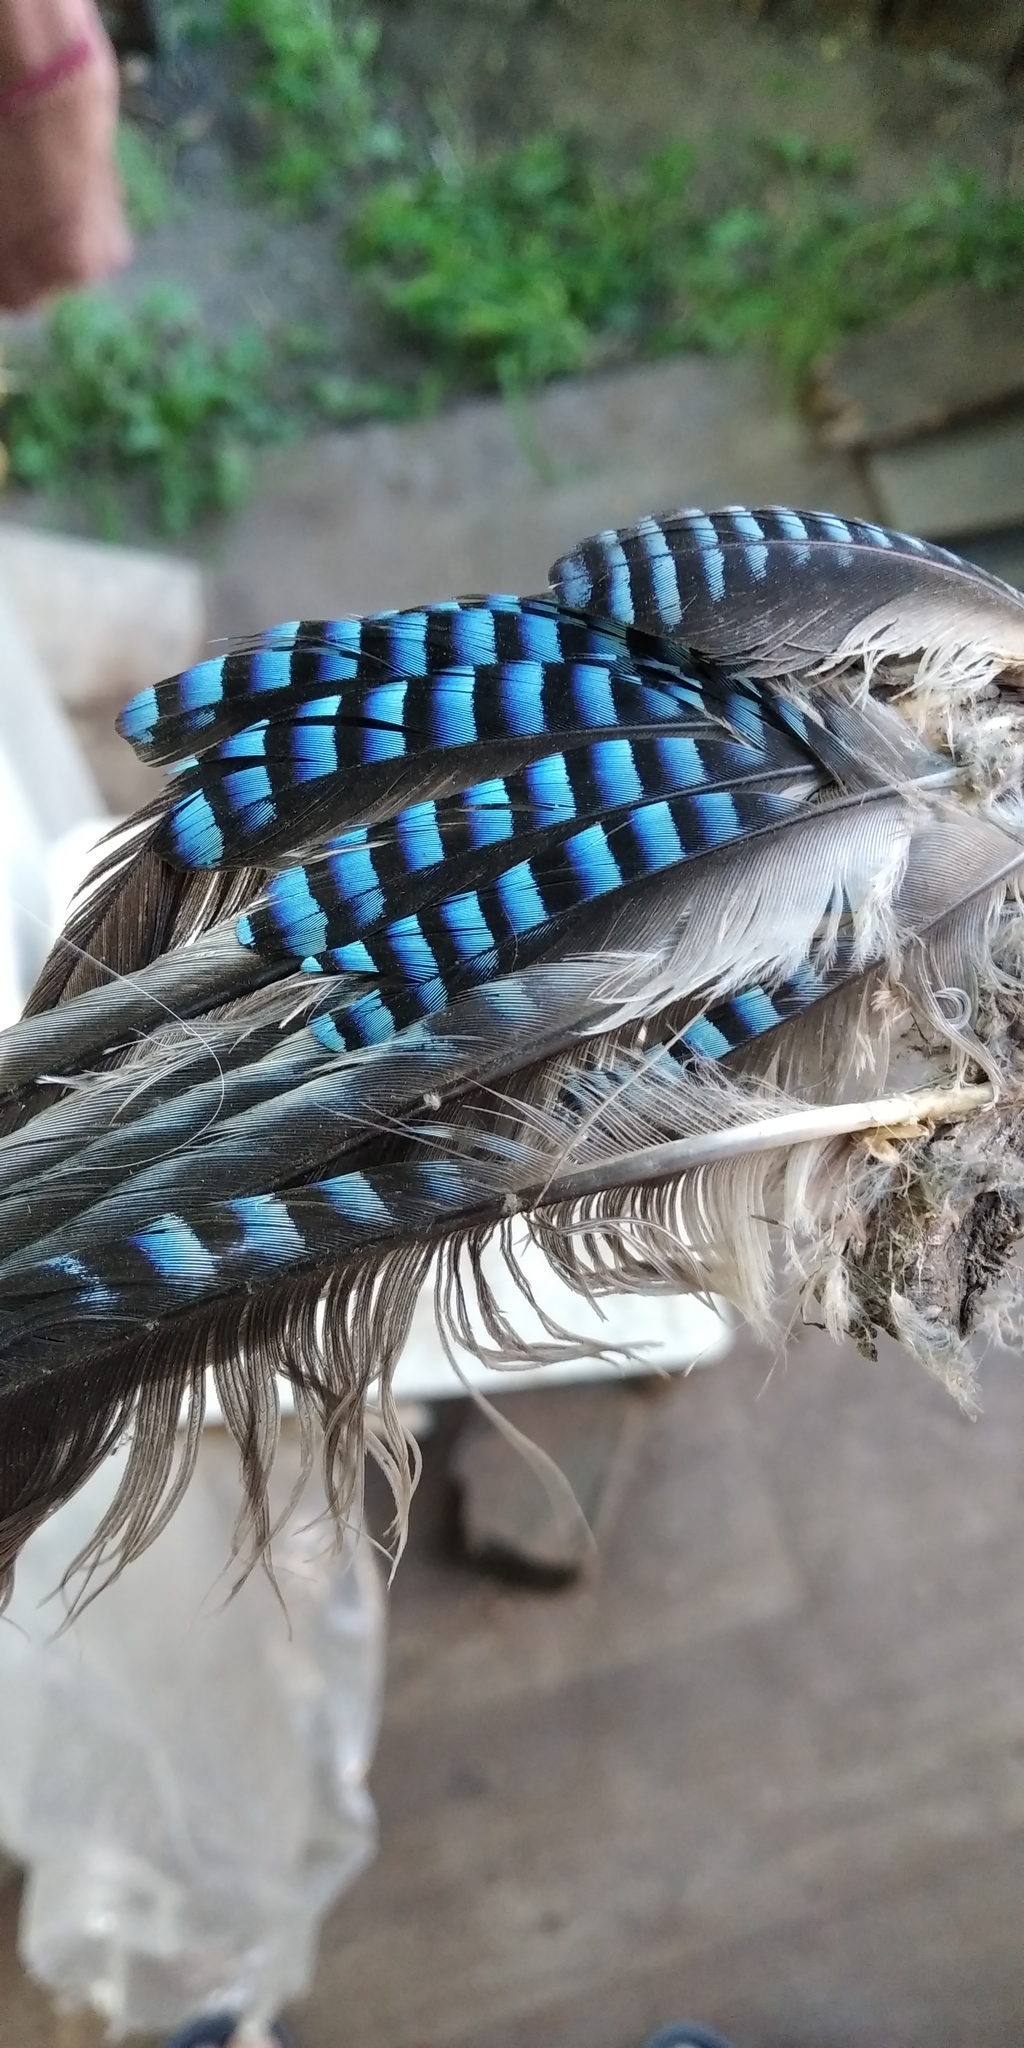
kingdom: Animalia
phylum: Chordata
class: Aves
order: Passeriformes
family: Corvidae
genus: Garrulus
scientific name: Garrulus glandarius
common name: Eurasian jay
